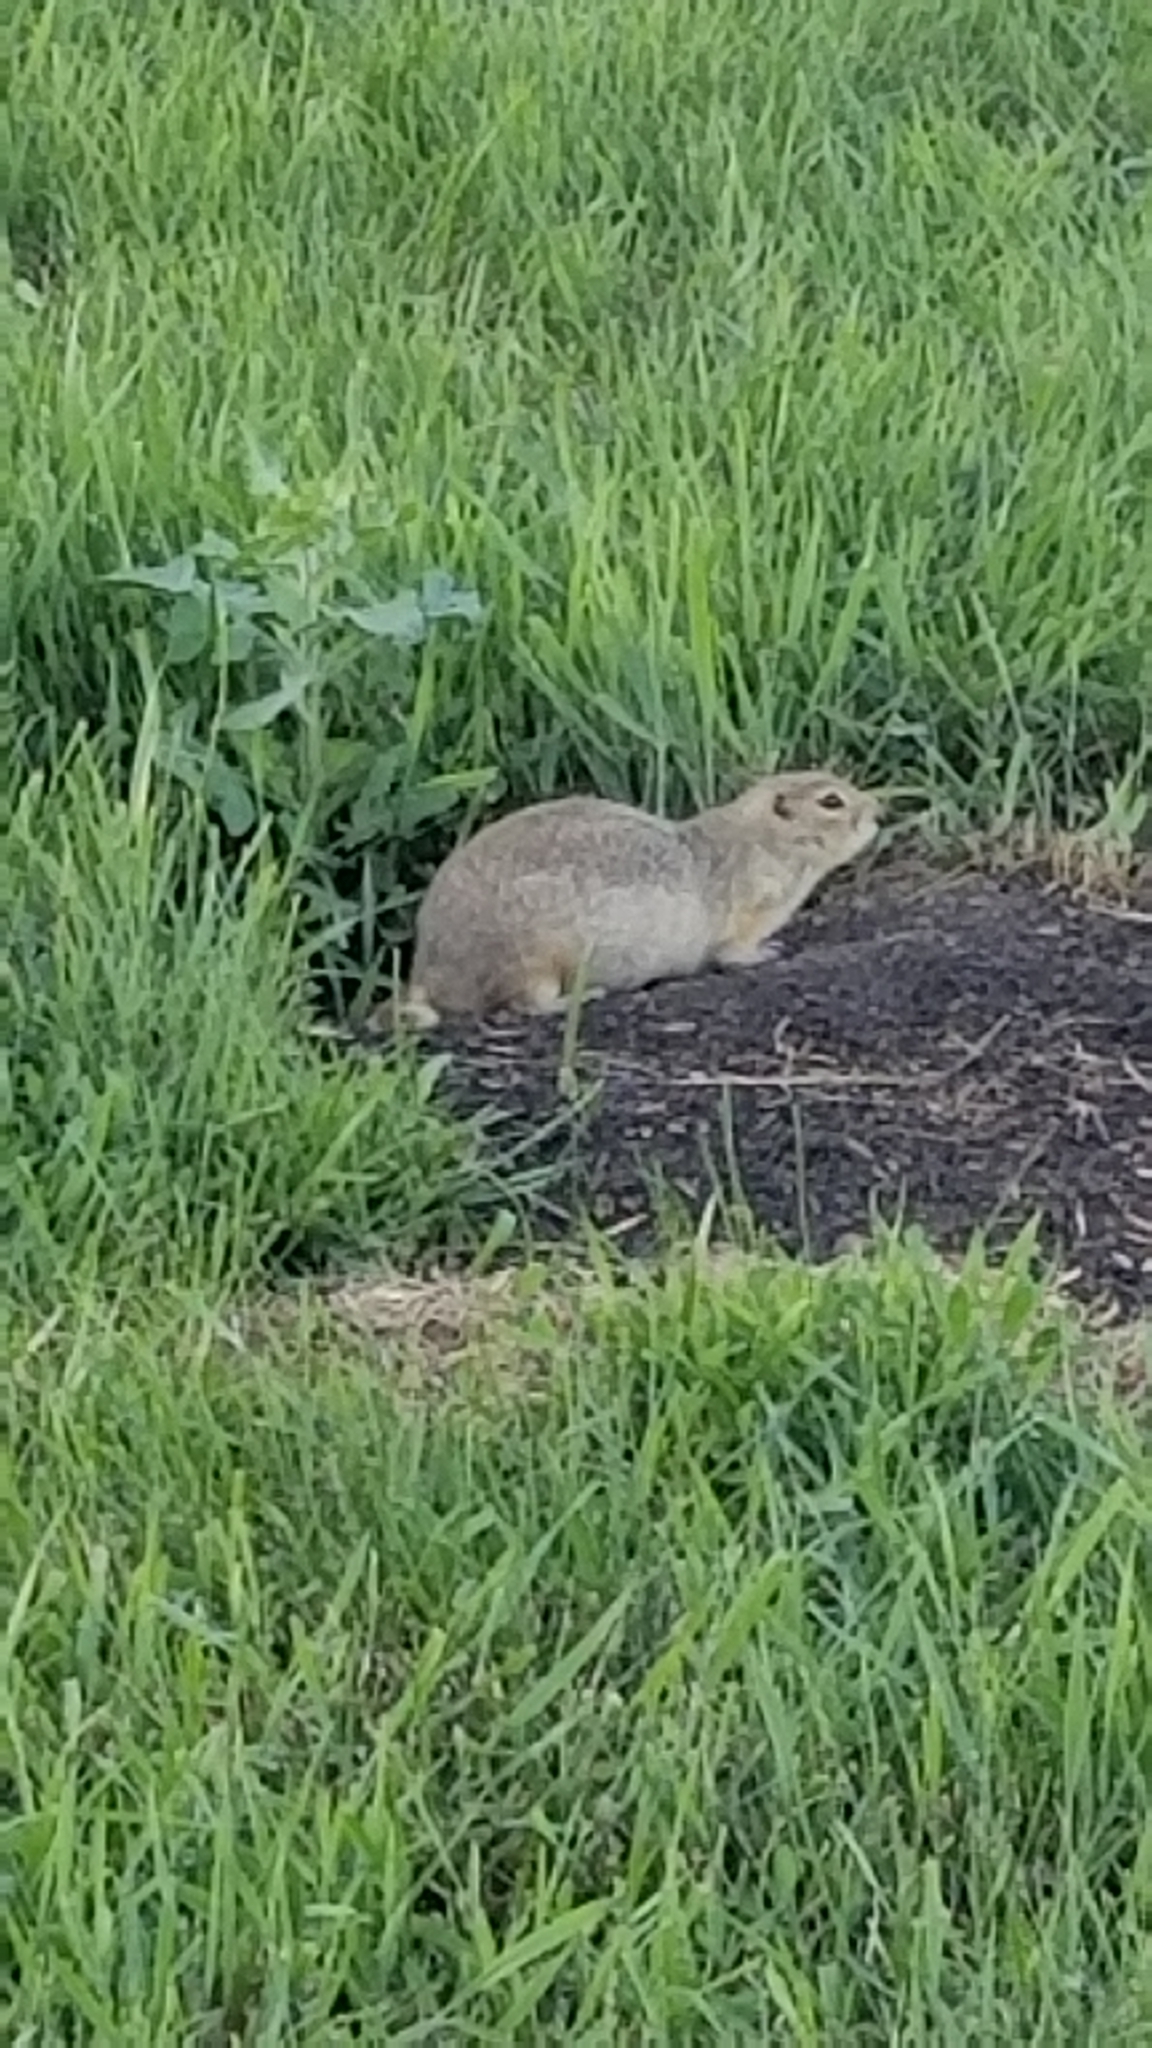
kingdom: Animalia
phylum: Chordata
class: Mammalia
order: Rodentia
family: Sciuridae
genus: Urocitellus
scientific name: Urocitellus richardsonii
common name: Richardson's ground squirrel
